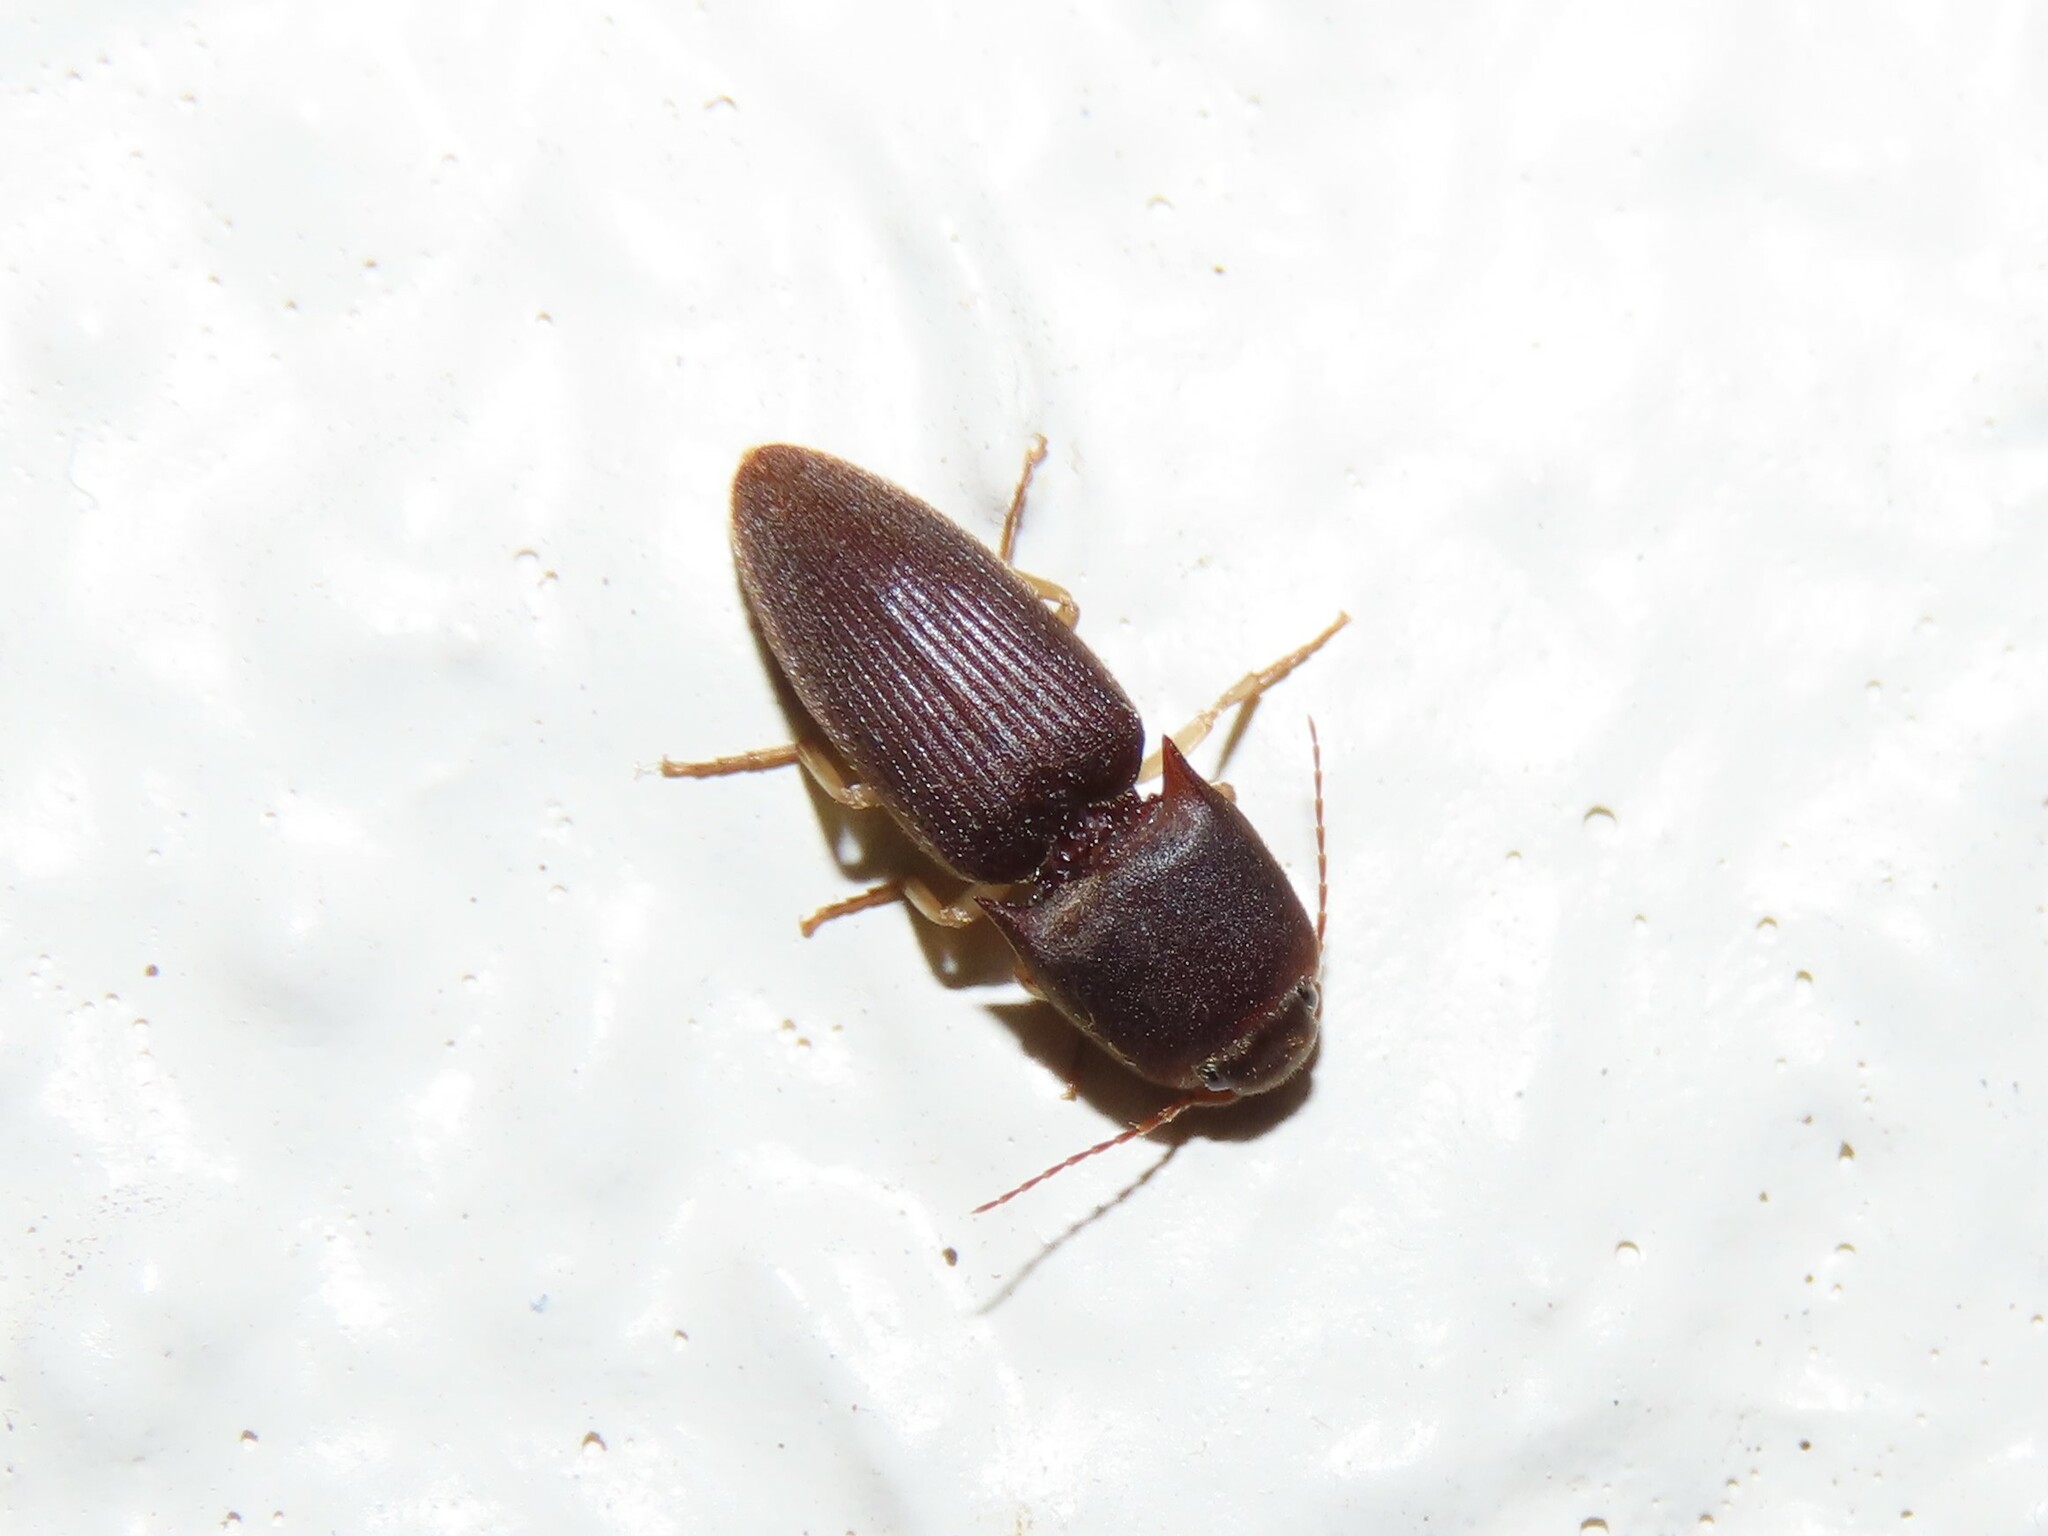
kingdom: Animalia
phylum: Arthropoda
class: Insecta
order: Coleoptera
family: Elateridae
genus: Heteroderes
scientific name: Heteroderes amplicollis
